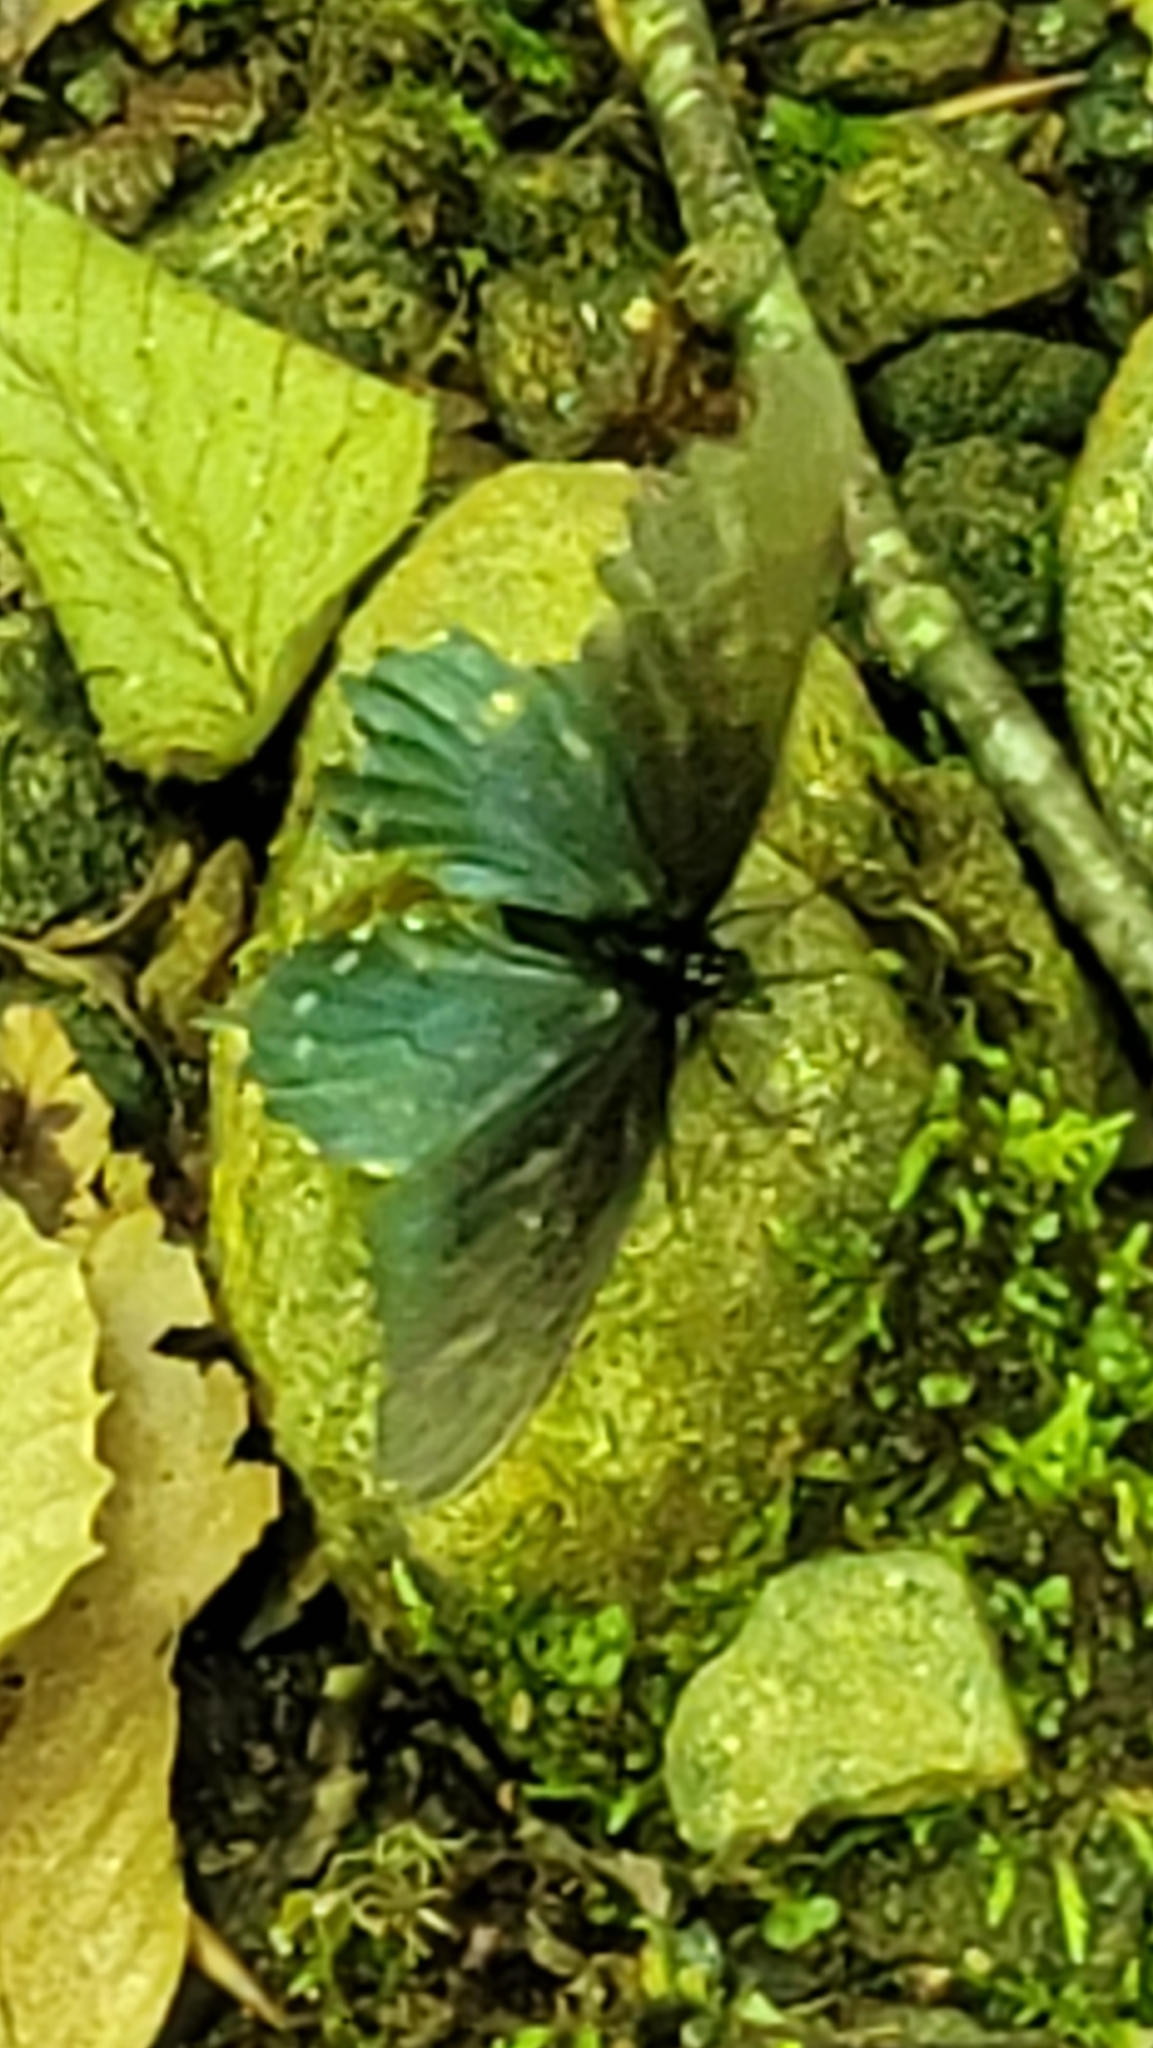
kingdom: Animalia
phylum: Arthropoda
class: Insecta
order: Lepidoptera
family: Papilionidae
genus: Battus
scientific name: Battus philenor
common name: Pipevine swallowtail
